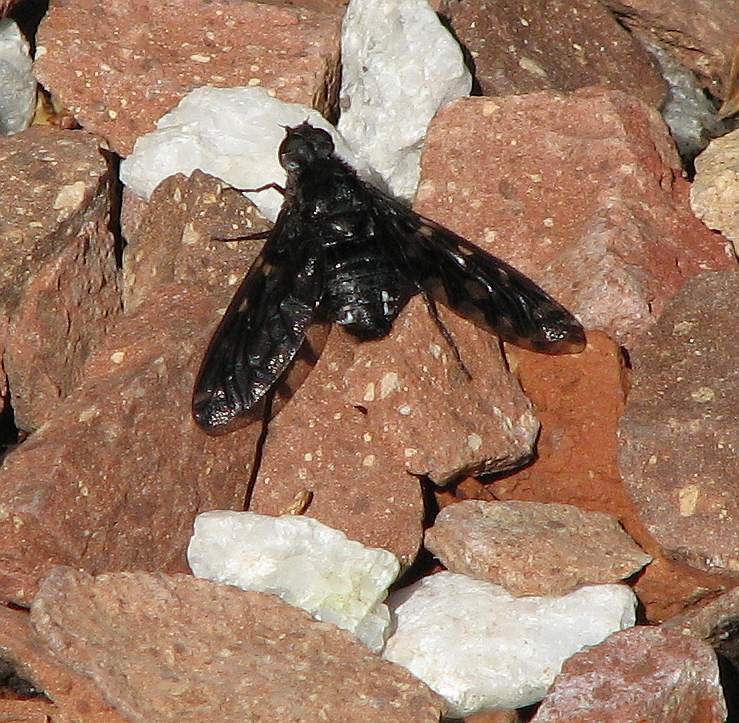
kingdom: Animalia
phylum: Arthropoda
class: Insecta
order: Diptera
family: Bombyliidae
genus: Xenox
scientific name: Xenox tigrinus
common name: Tiger bee fly
